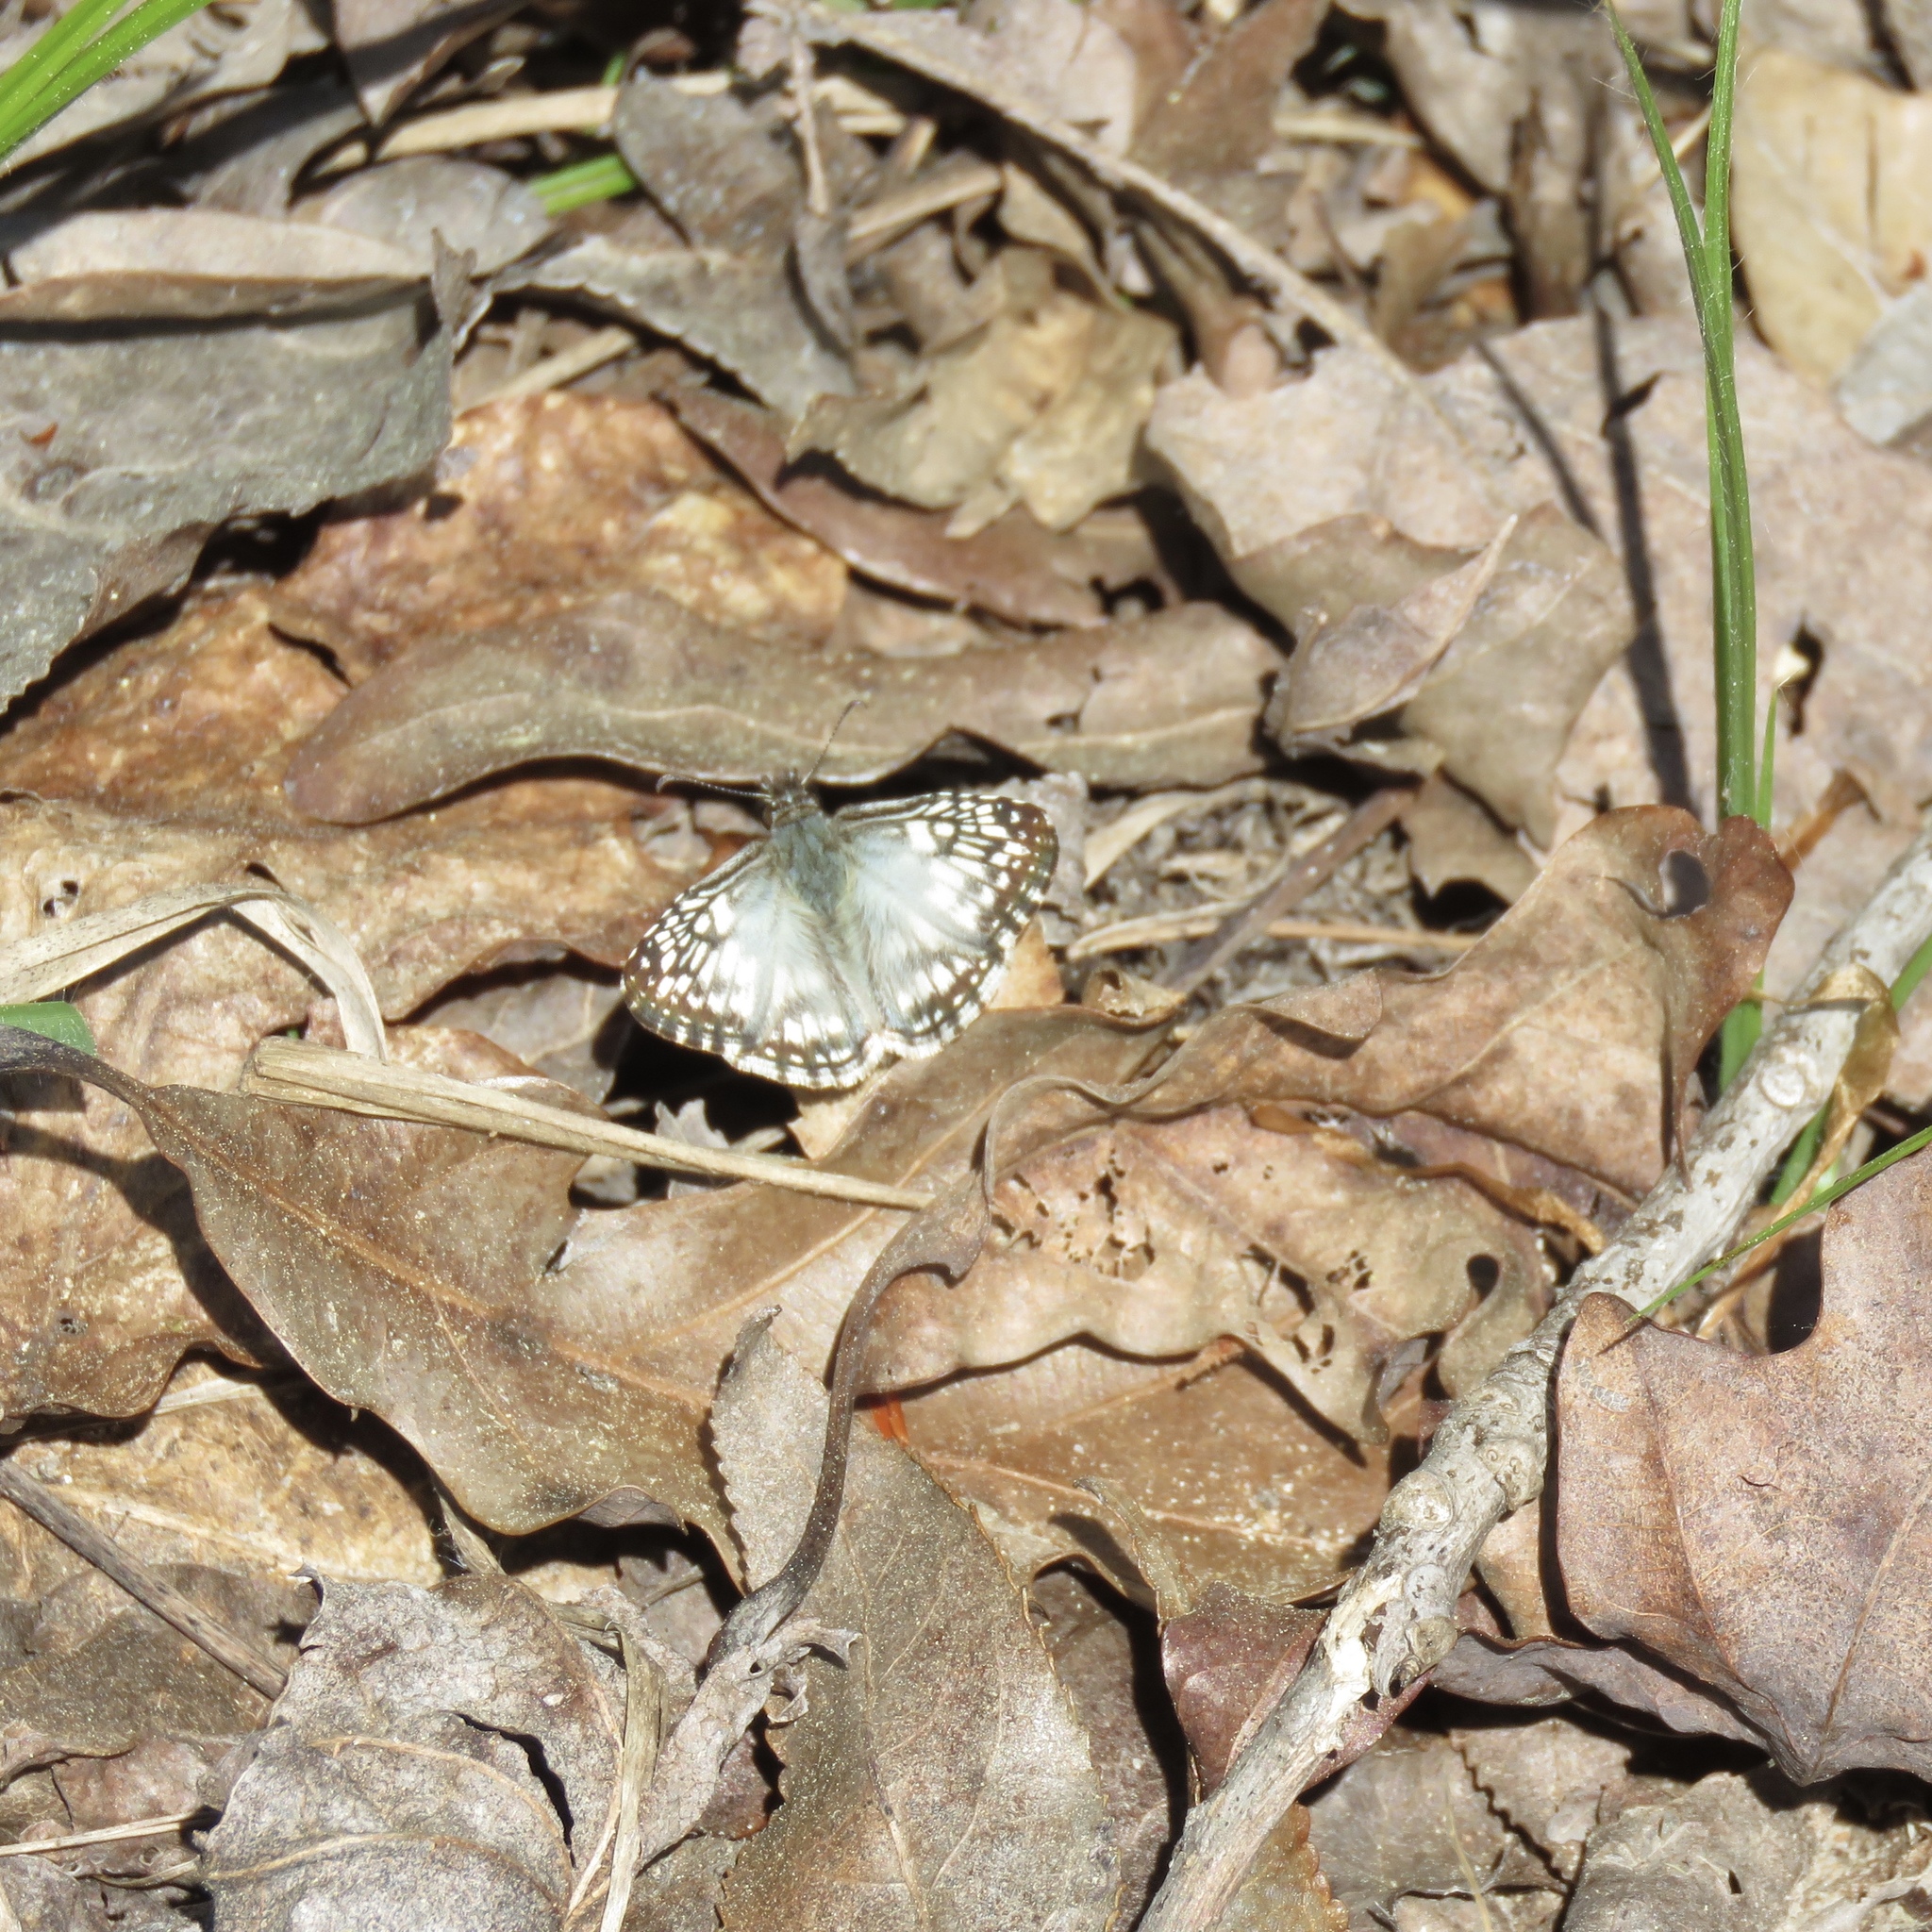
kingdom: Animalia
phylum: Arthropoda
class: Insecta
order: Lepidoptera
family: Hesperiidae
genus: Pyrgus
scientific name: Pyrgus oileus
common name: Tropical checkered-skipper
